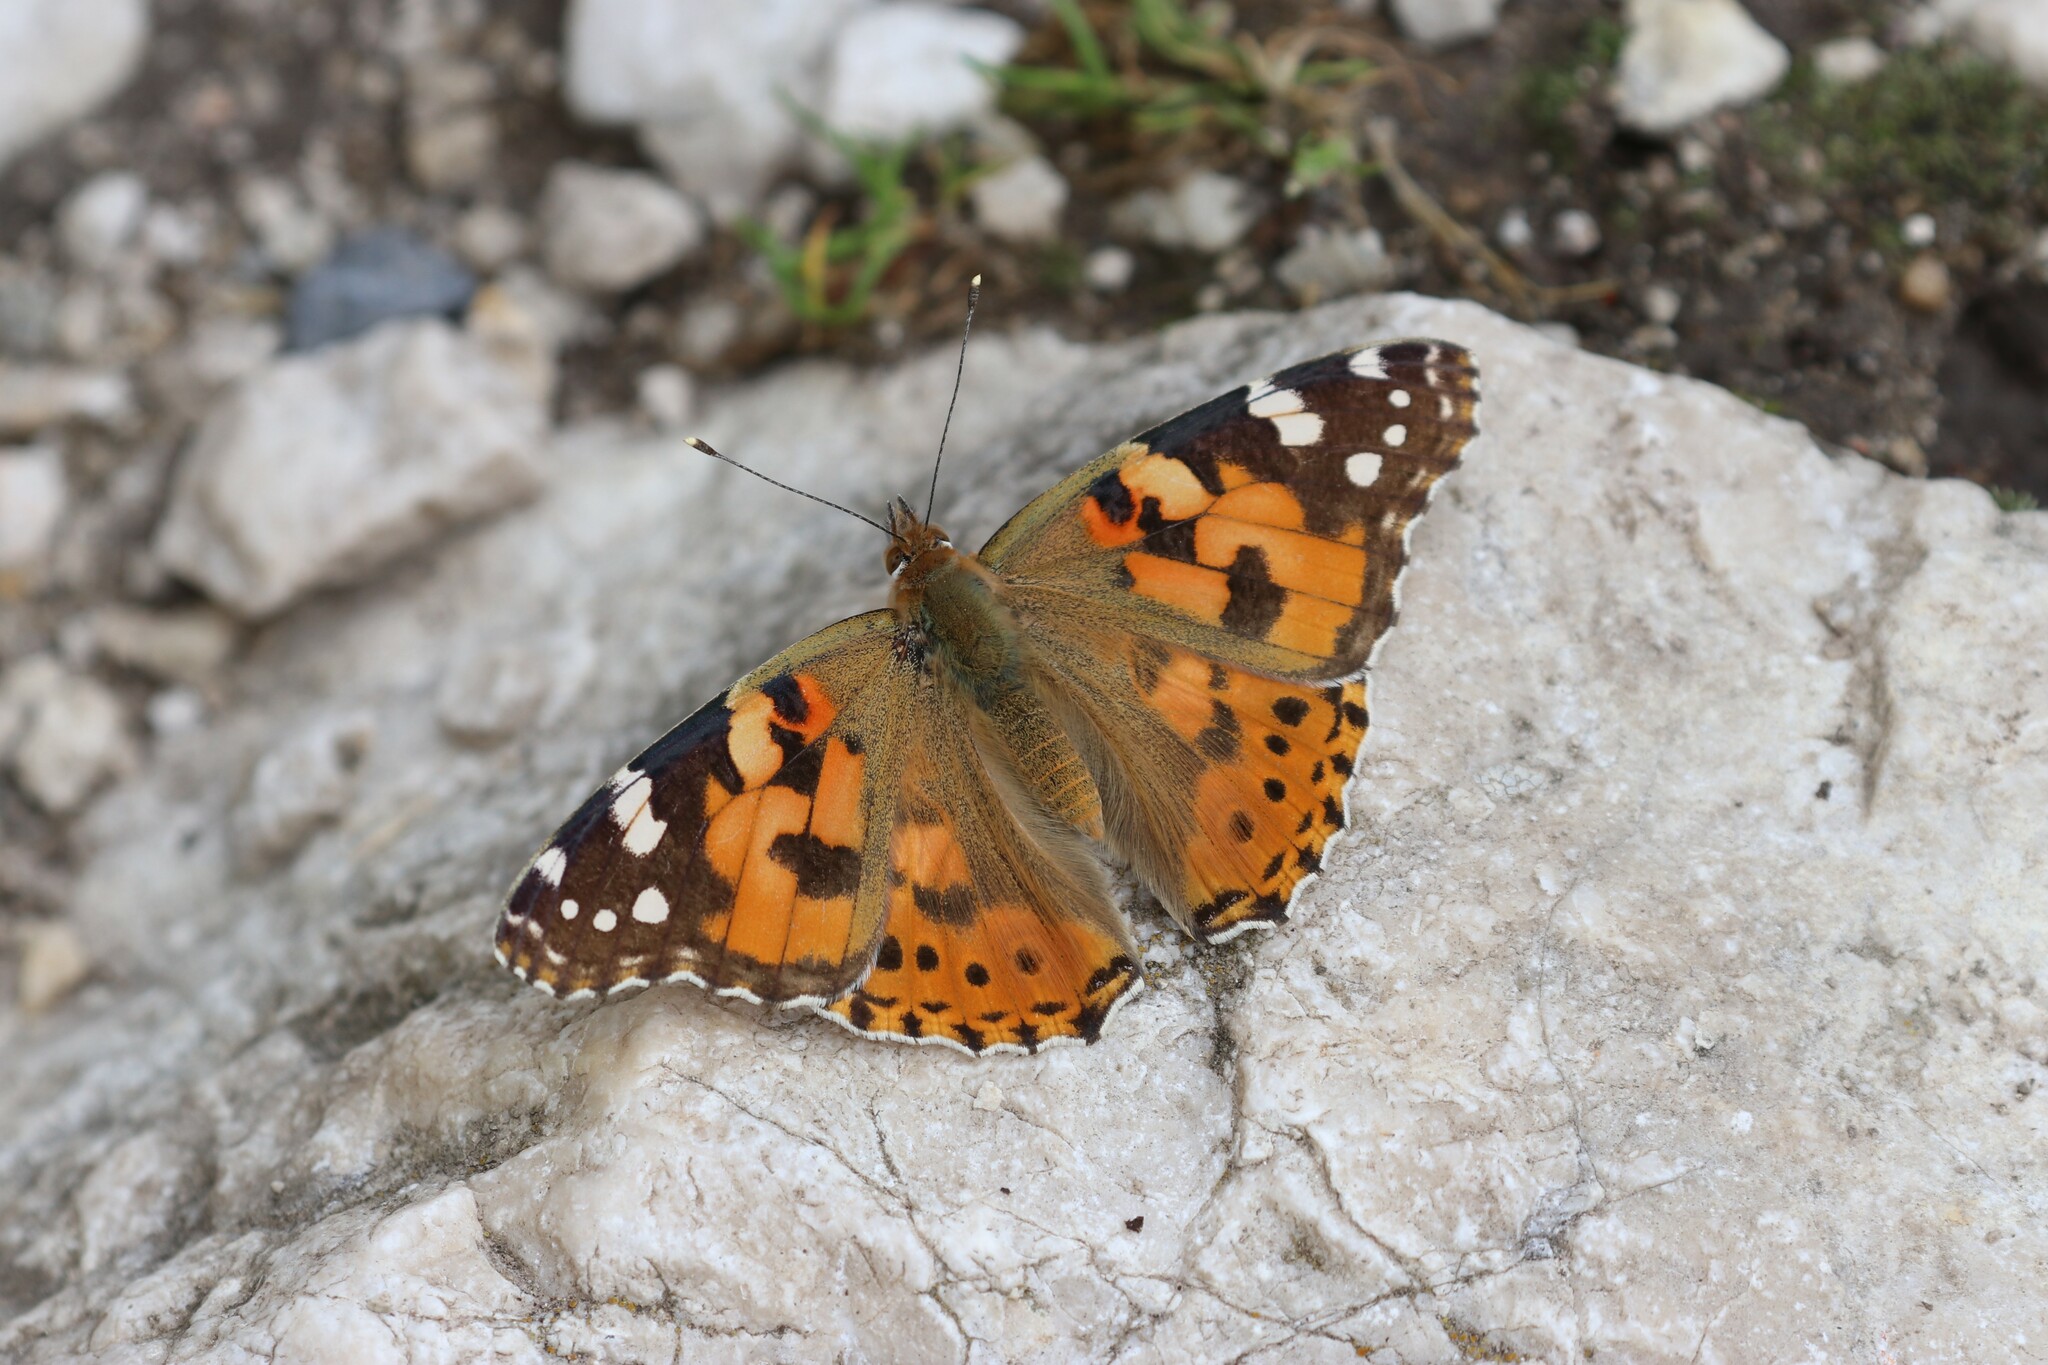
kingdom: Animalia
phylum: Arthropoda
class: Insecta
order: Lepidoptera
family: Nymphalidae
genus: Vanessa
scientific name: Vanessa cardui
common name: Painted lady
